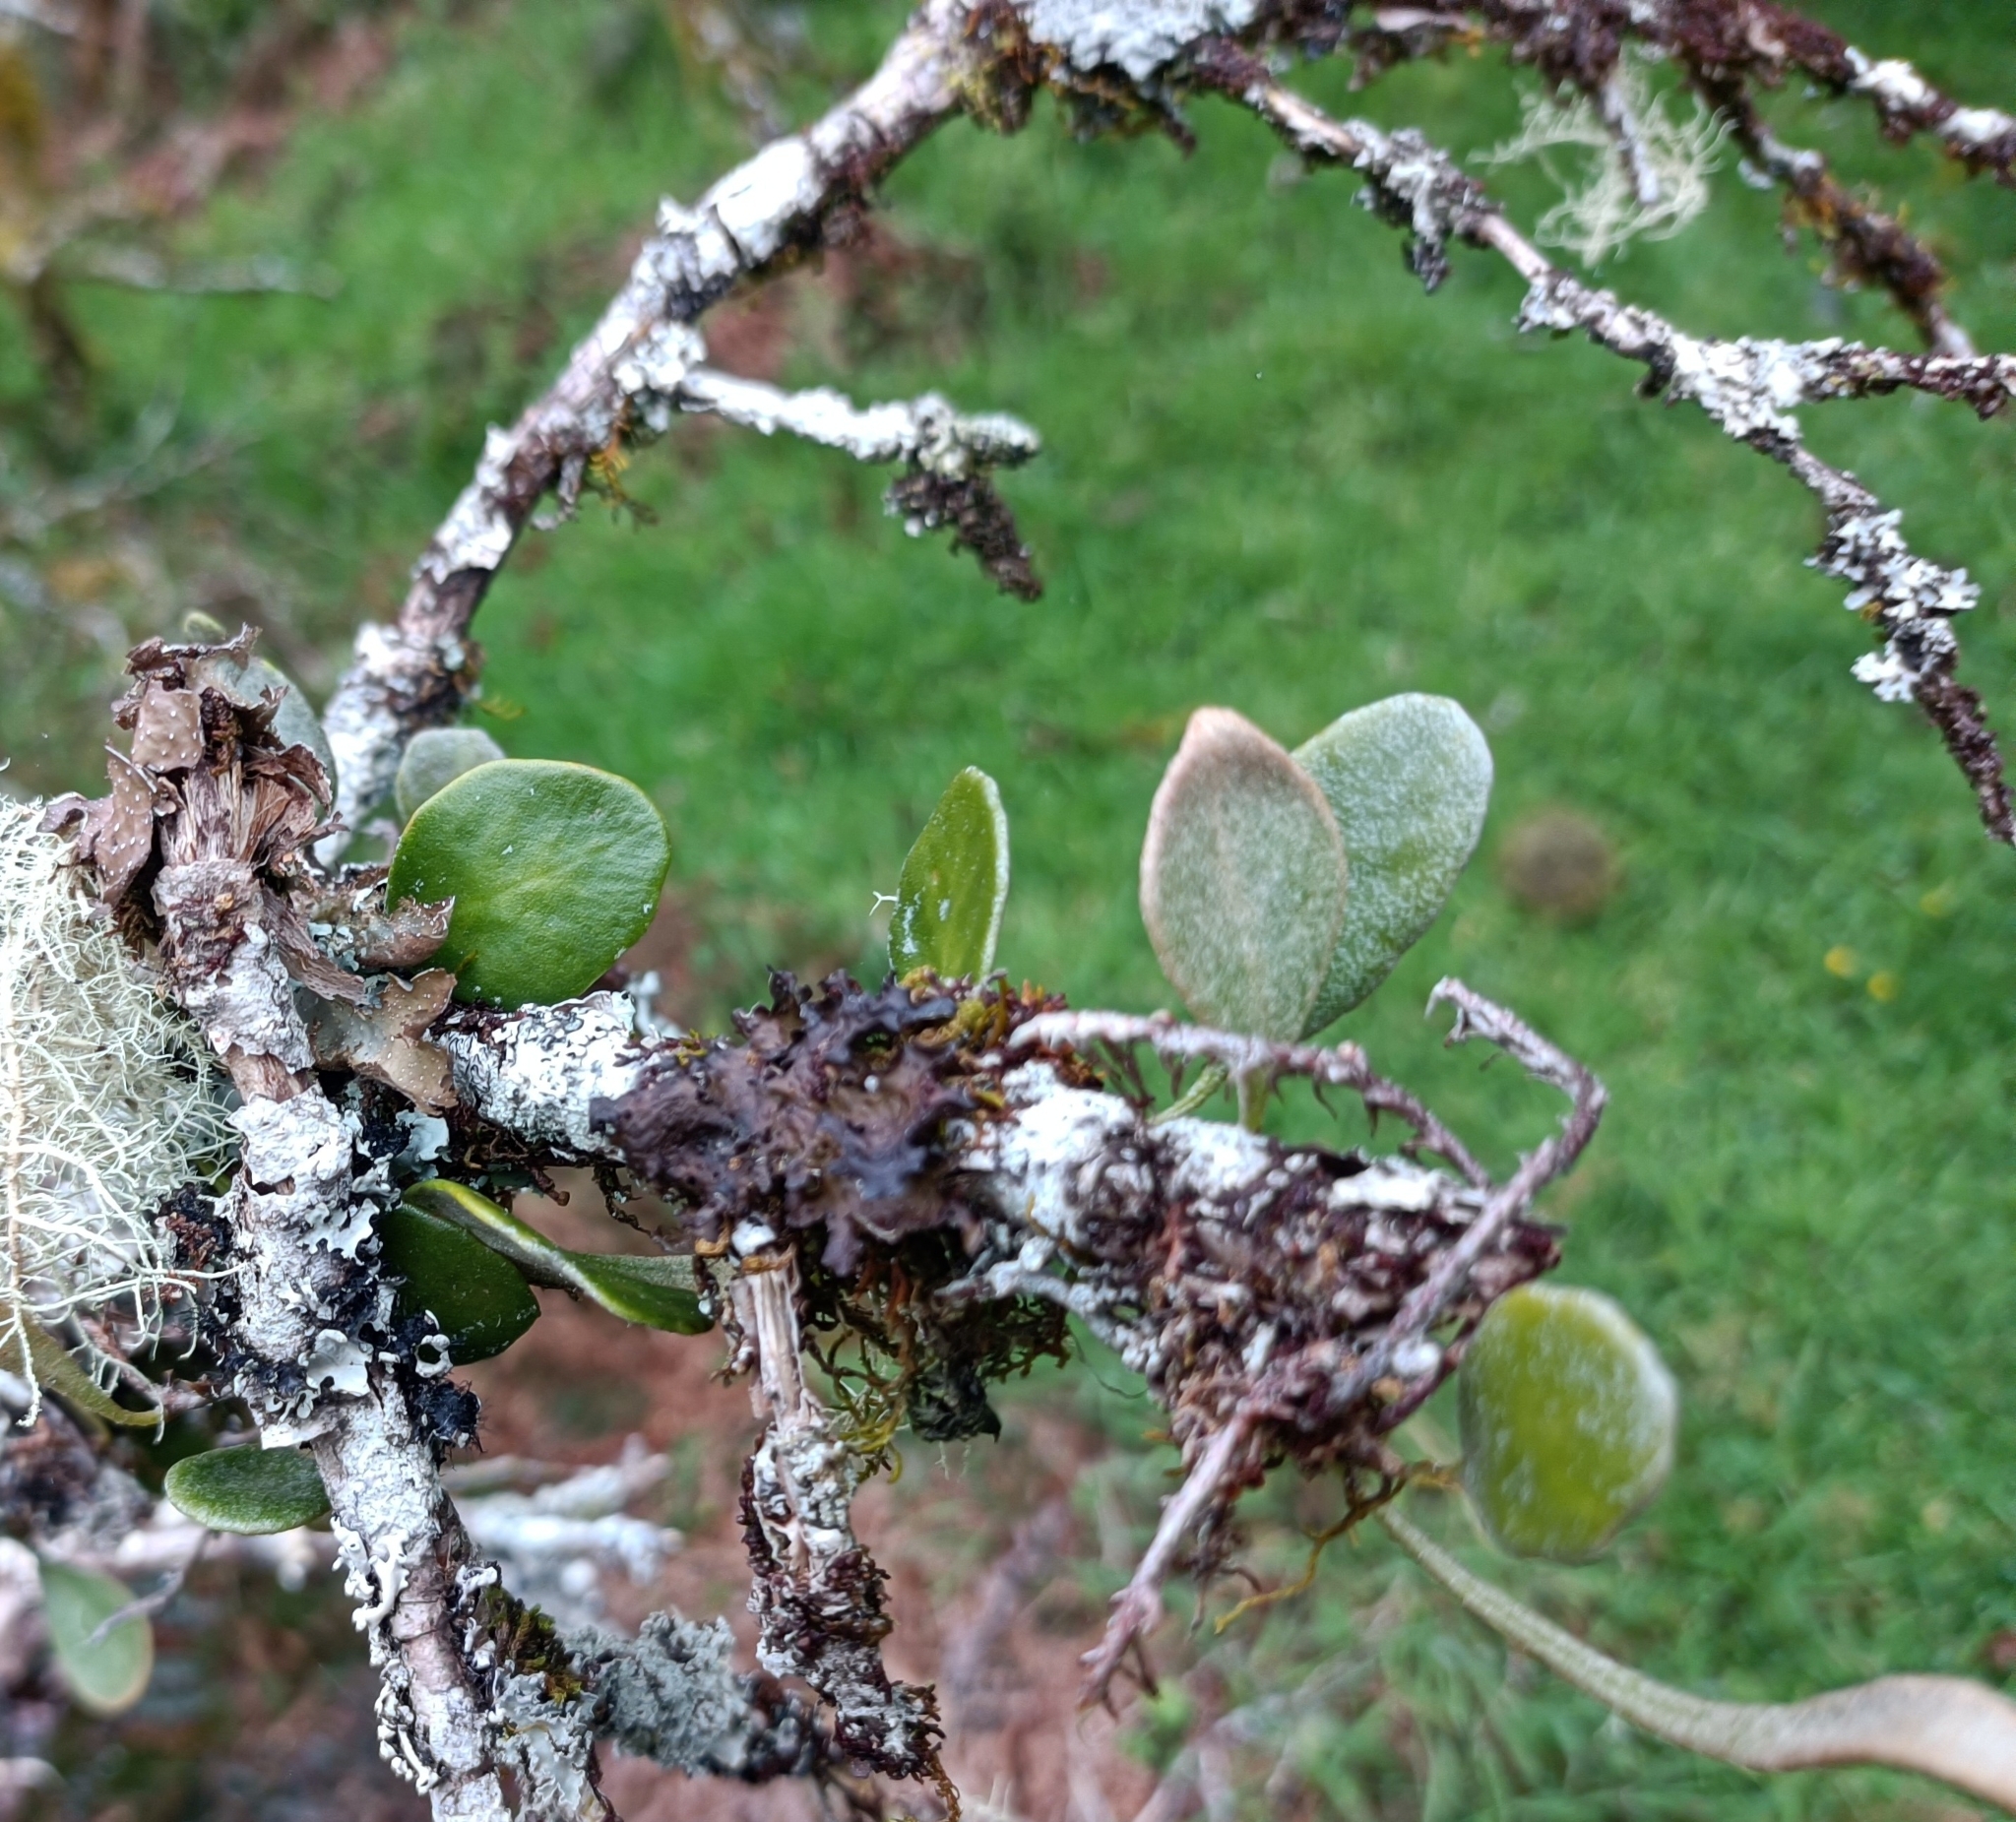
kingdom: Plantae
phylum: Tracheophyta
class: Polypodiopsida
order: Polypodiales
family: Polypodiaceae
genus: Pyrrosia
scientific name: Pyrrosia eleagnifolia
